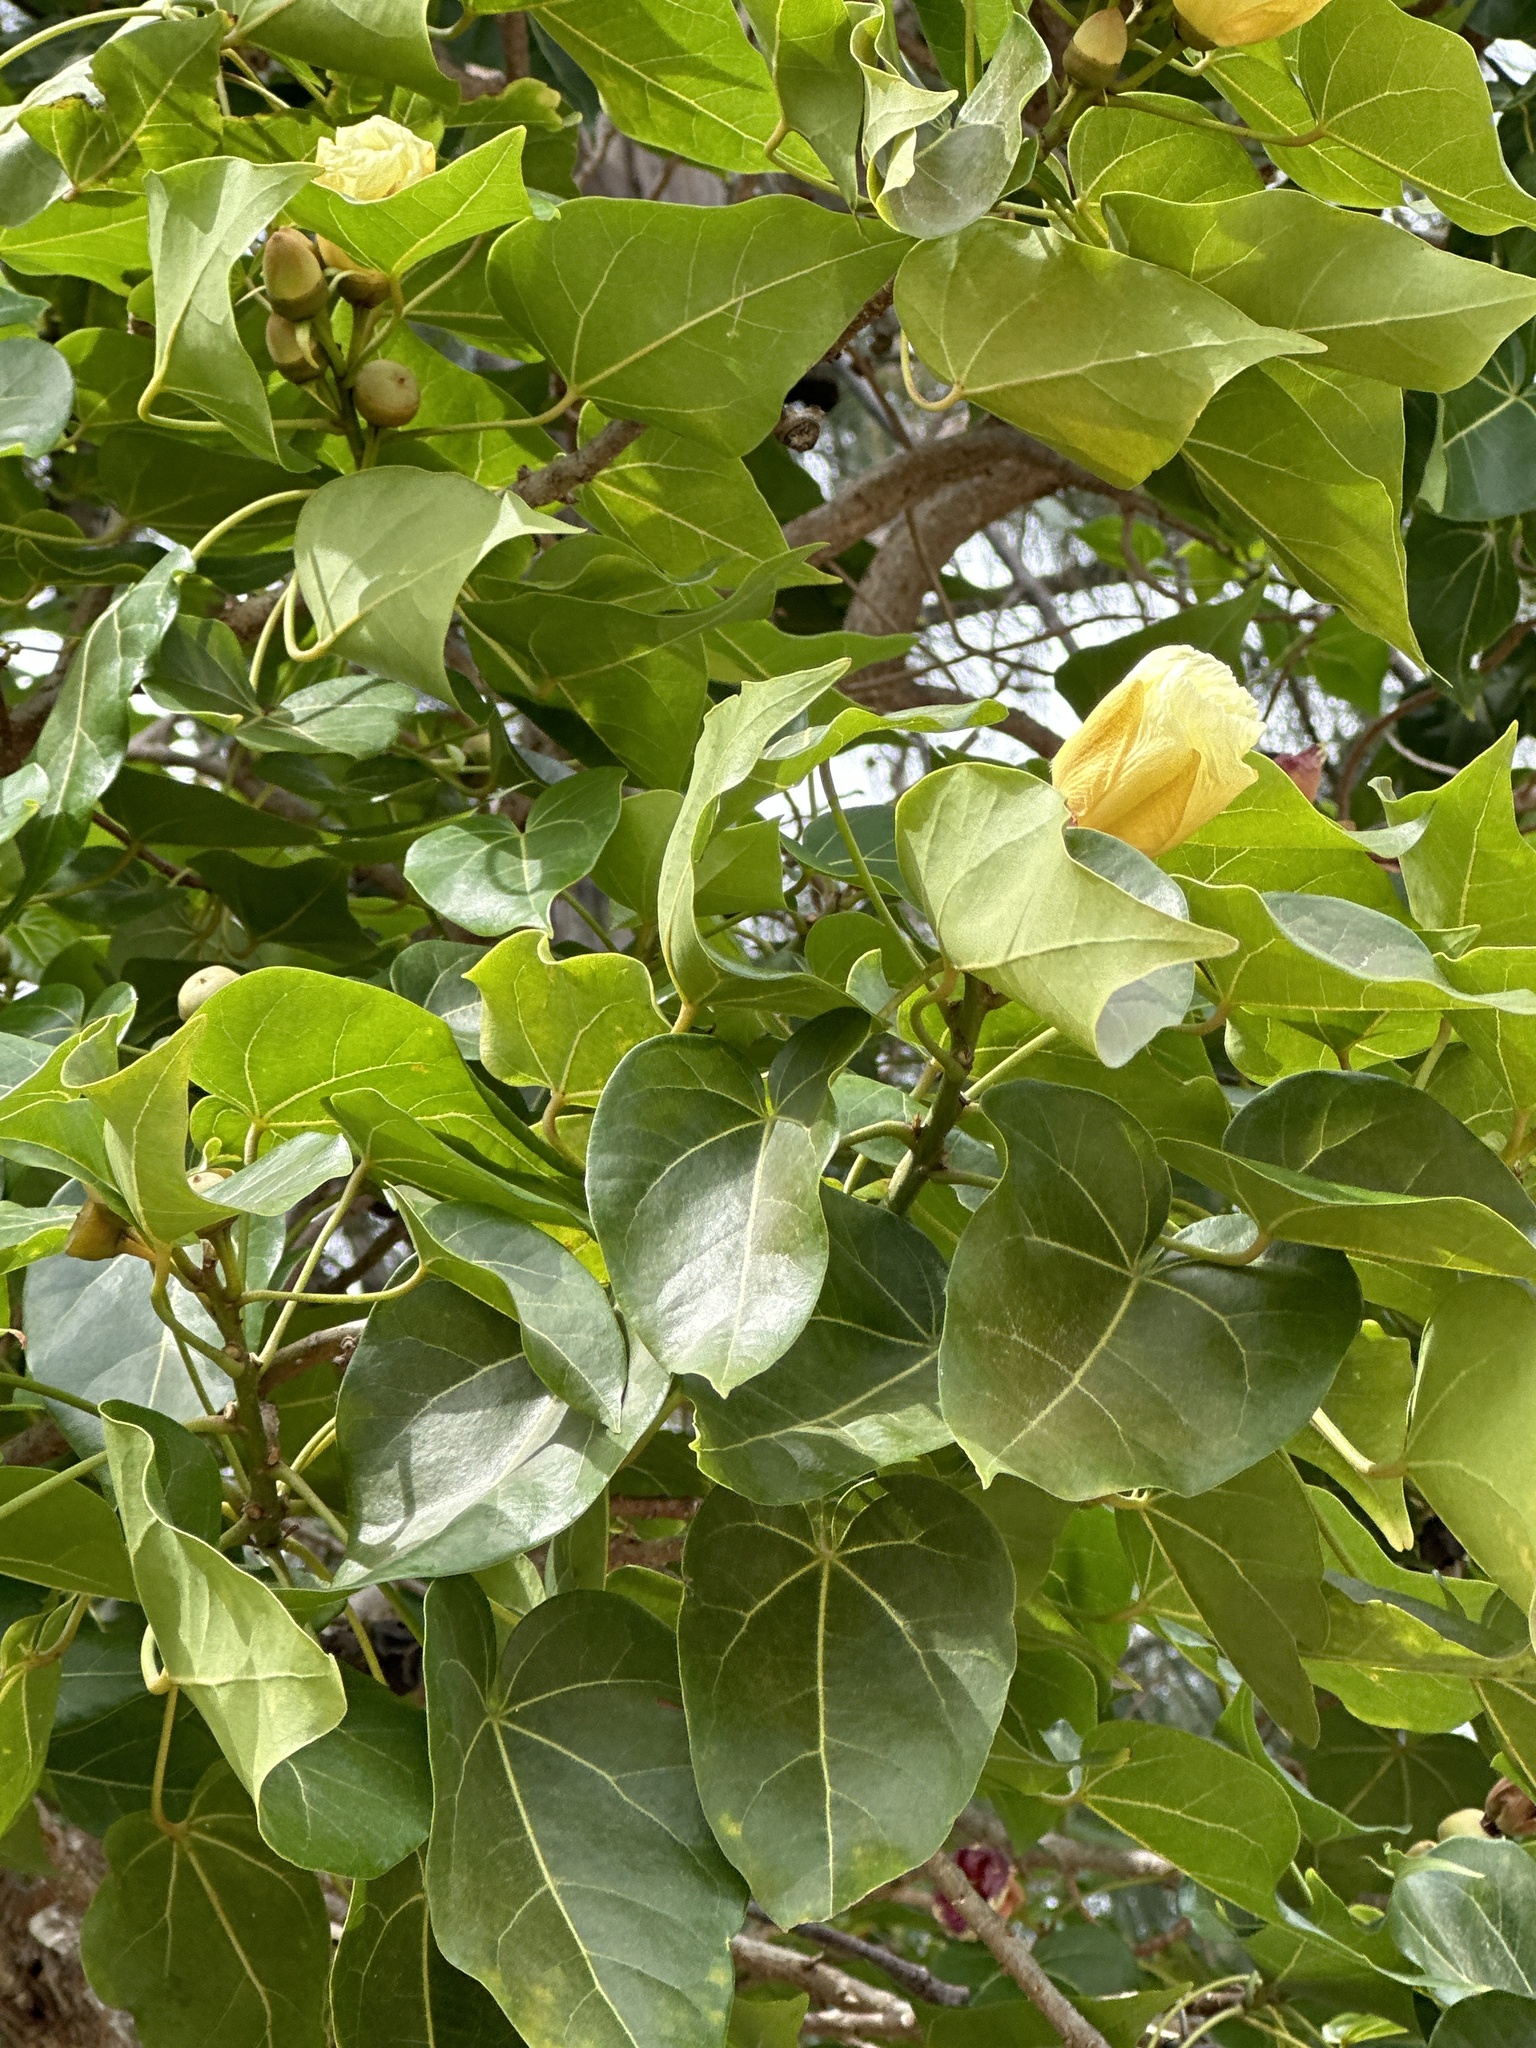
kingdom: Plantae
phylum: Tracheophyta
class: Magnoliopsida
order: Malvales
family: Malvaceae
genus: Thespesia
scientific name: Thespesia populnea
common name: Seaside mahoe
